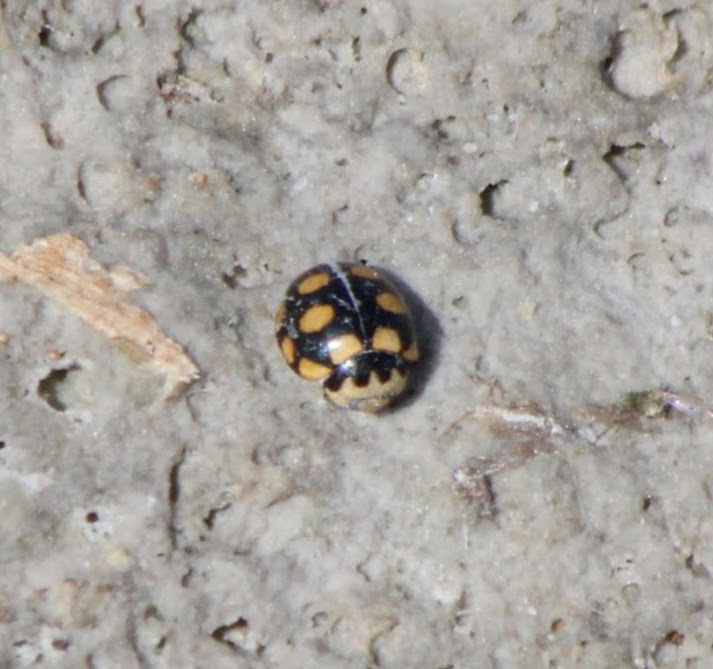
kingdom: Animalia
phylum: Arthropoda
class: Insecta
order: Coleoptera
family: Coccinellidae
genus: Coccinula
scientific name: Coccinula quatuordecimpustulata
